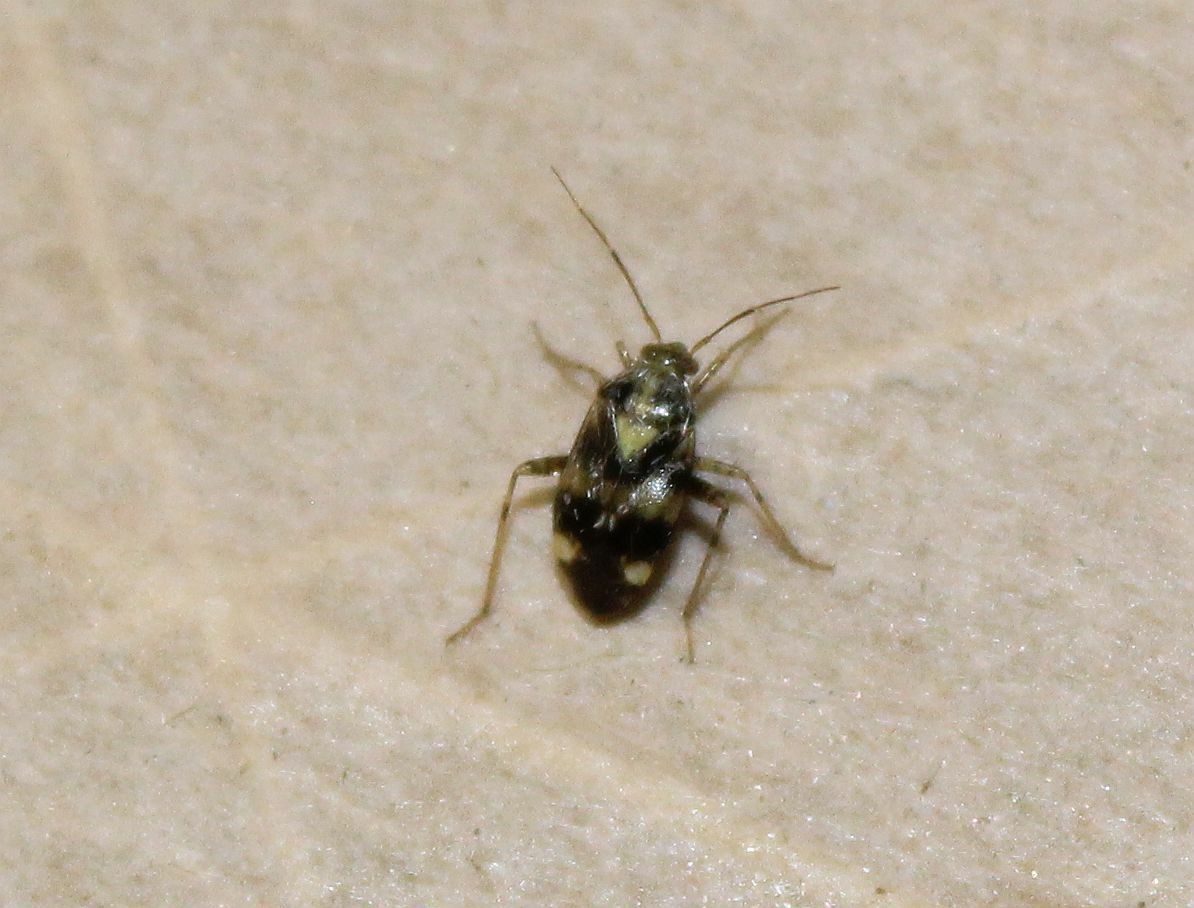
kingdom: Animalia
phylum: Arthropoda
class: Insecta
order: Hemiptera
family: Miridae
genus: Liocoris
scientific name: Liocoris tripustulatus
